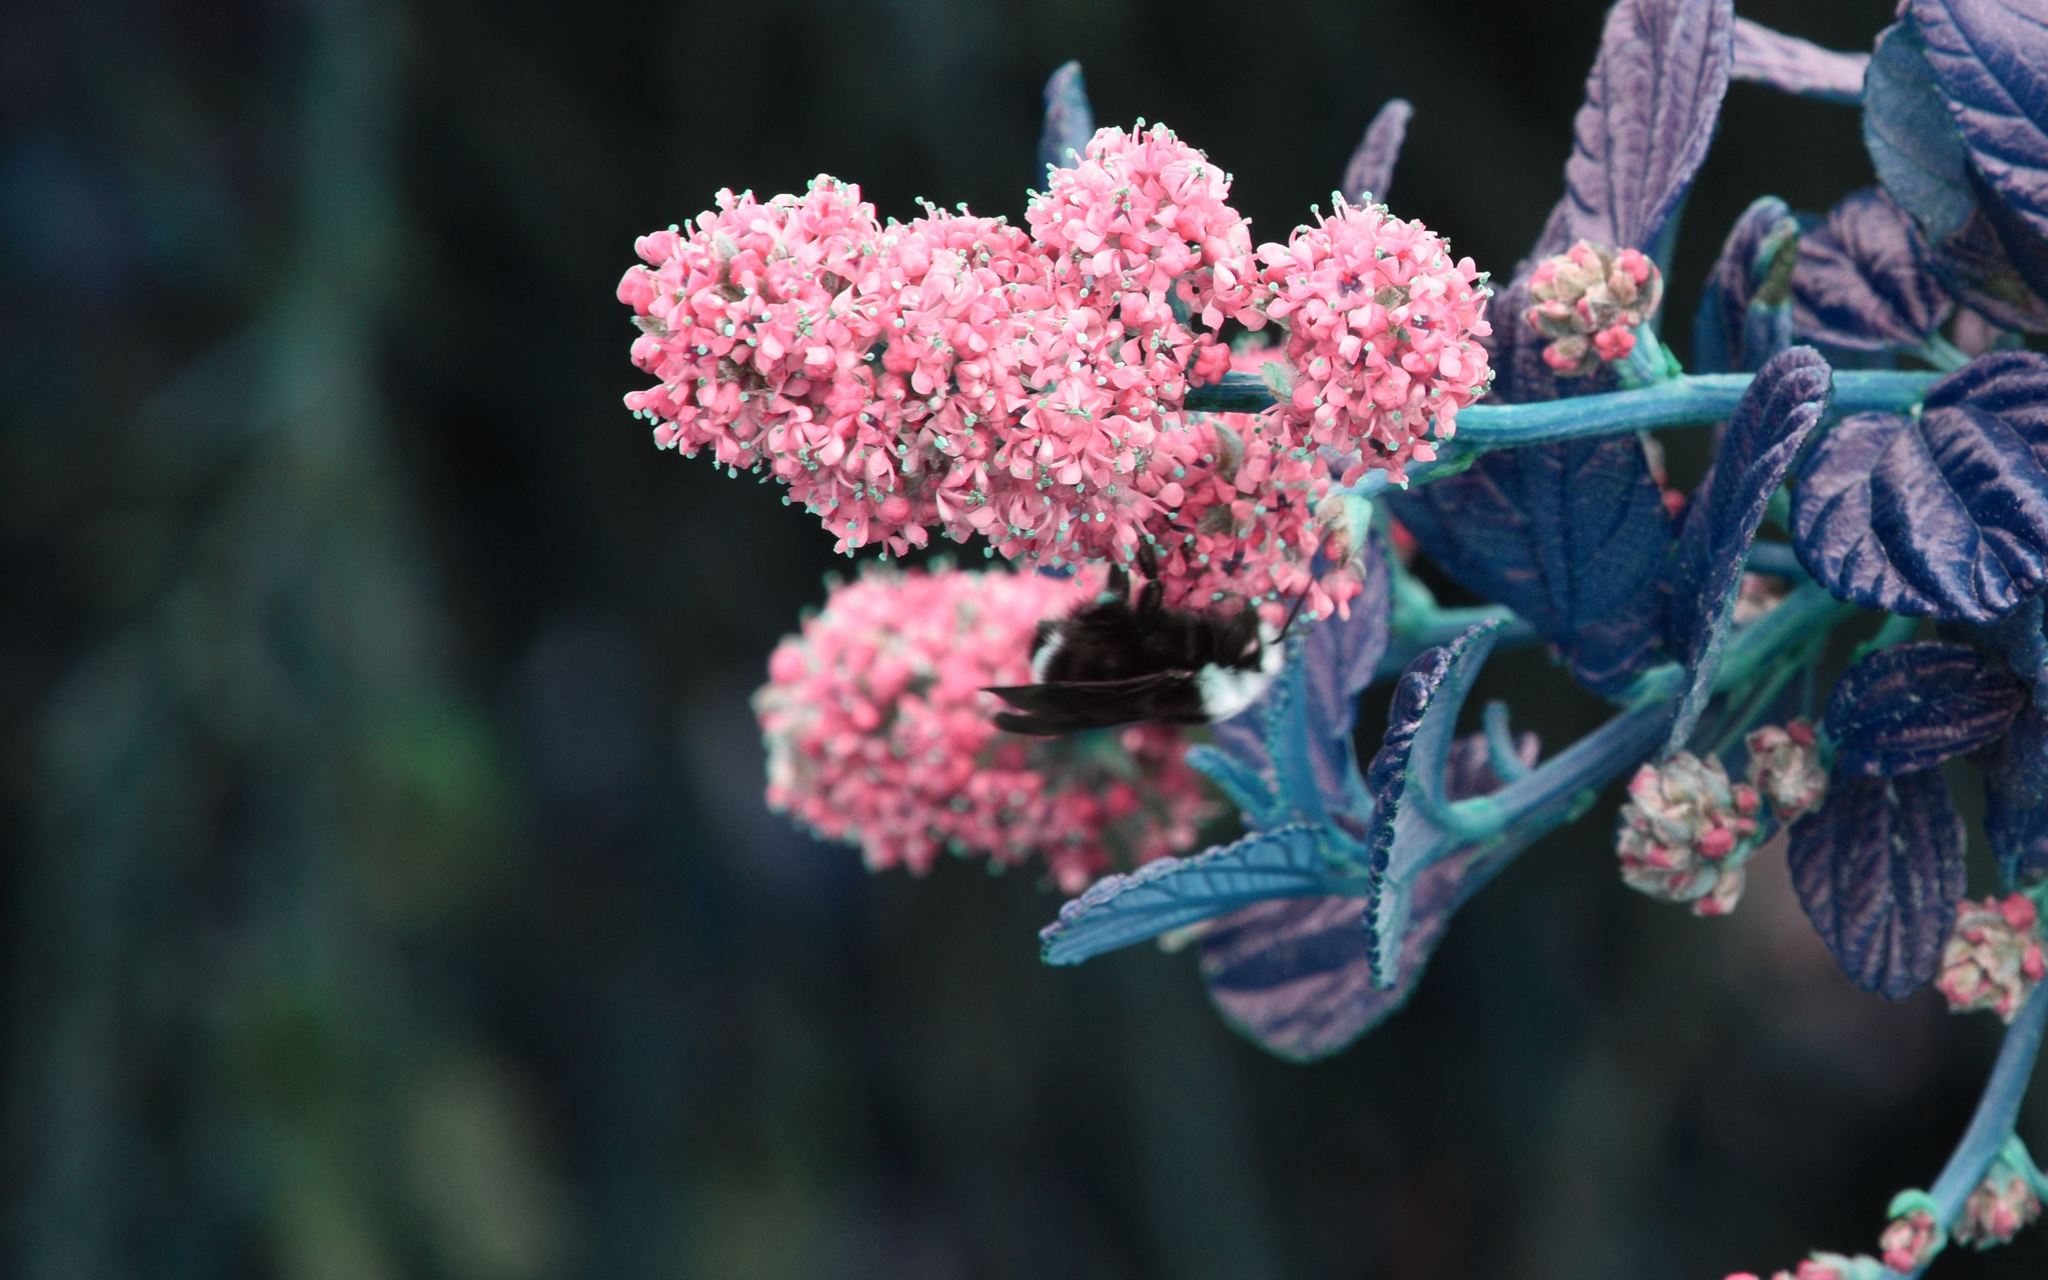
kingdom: Animalia
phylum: Arthropoda
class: Insecta
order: Hymenoptera
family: Apidae
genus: Pyrobombus
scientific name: Pyrobombus
